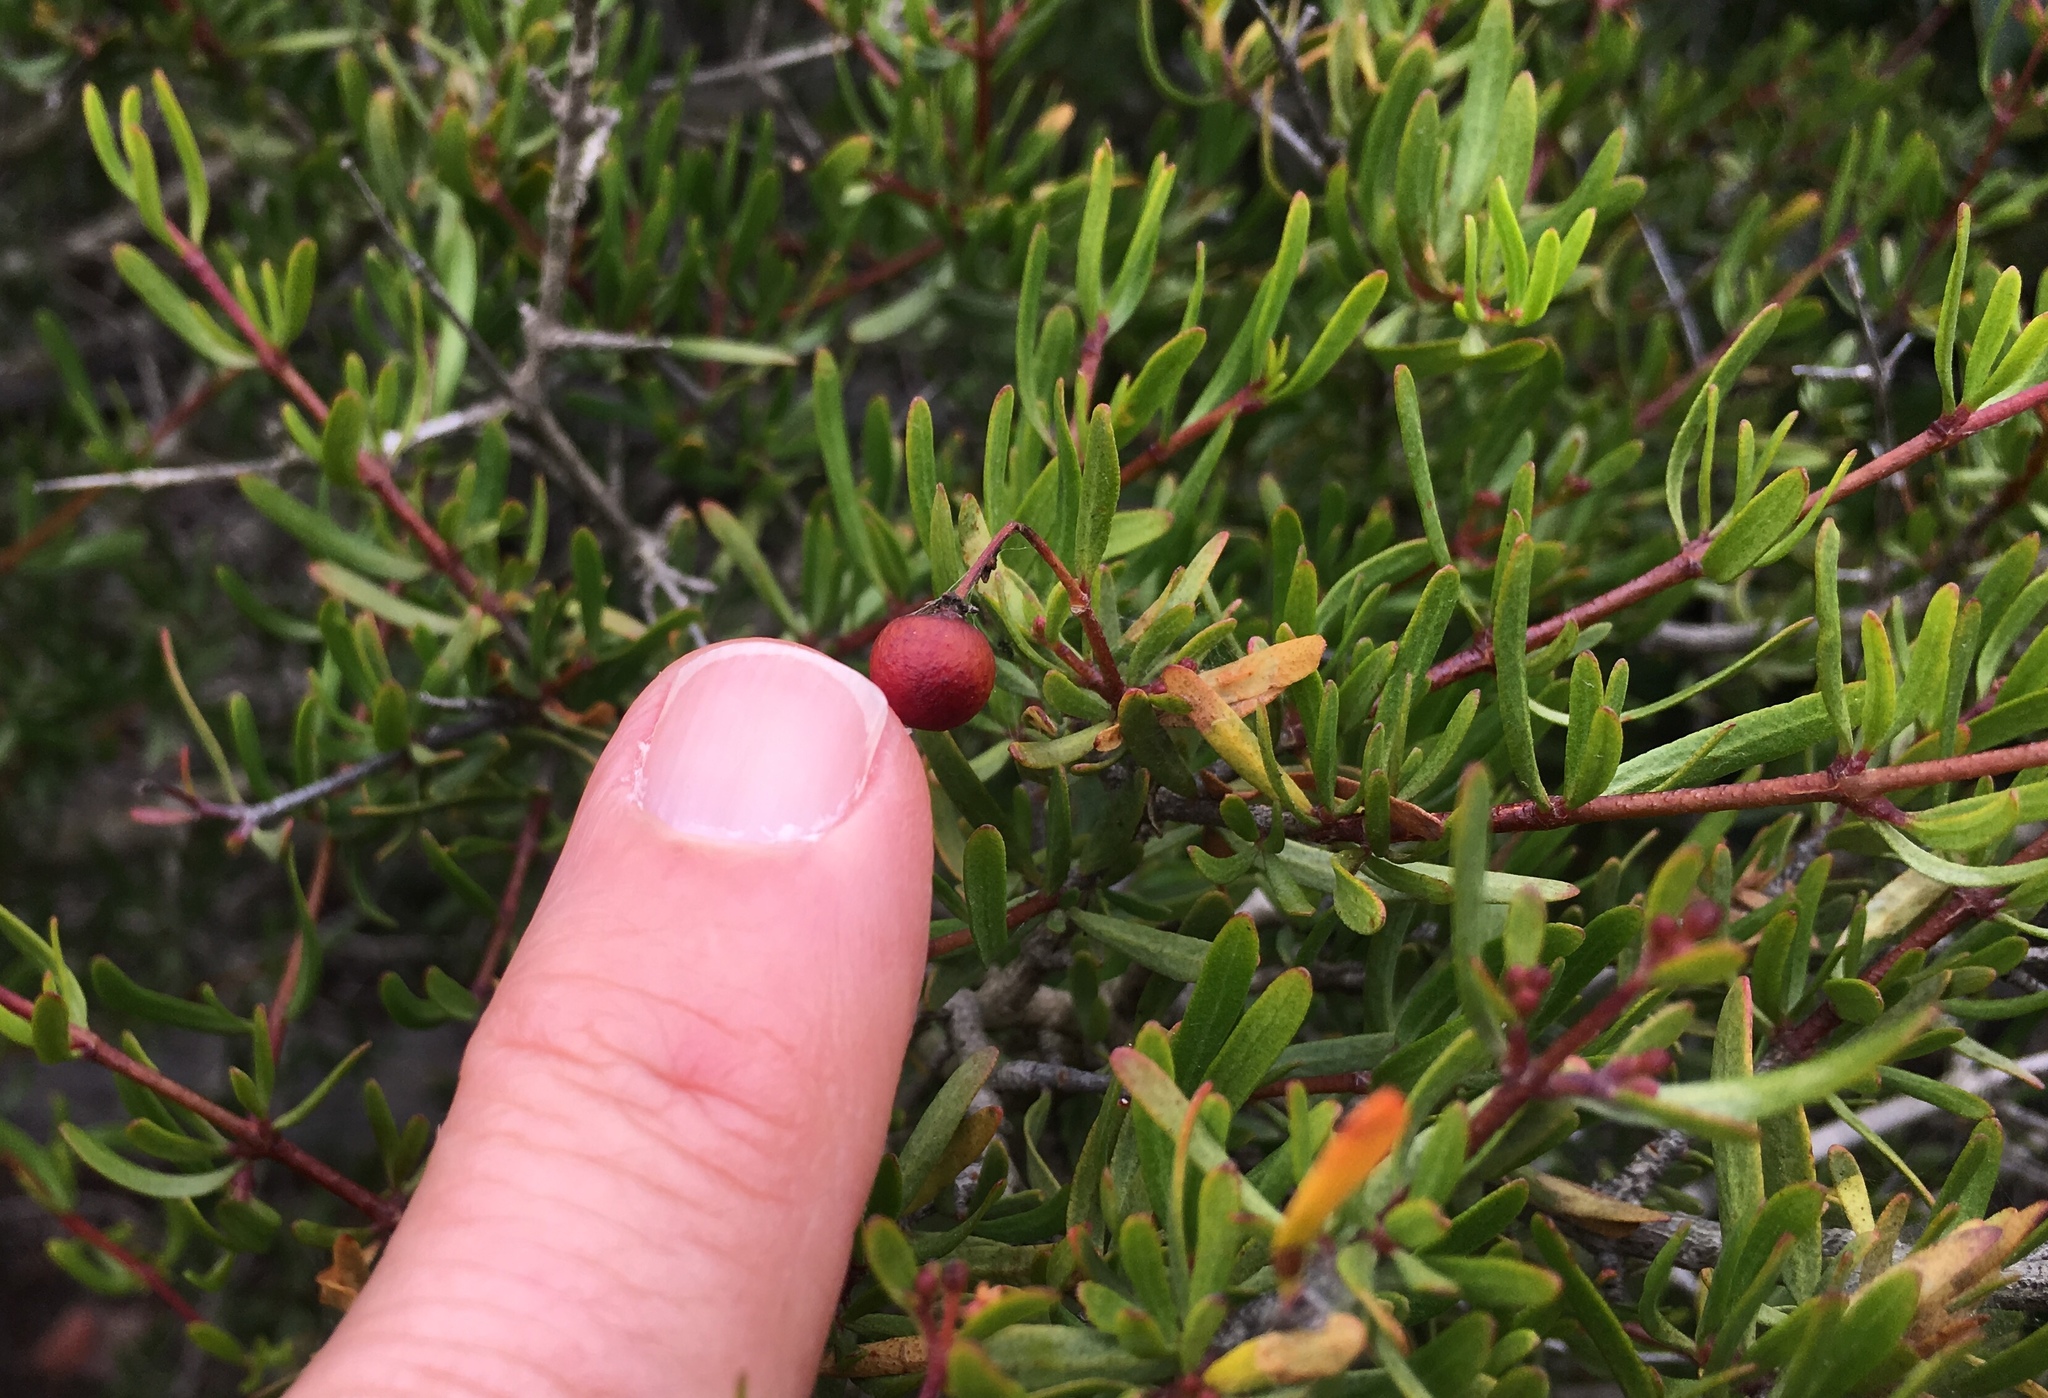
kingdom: Plantae
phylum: Tracheophyta
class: Magnoliopsida
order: Sapindales
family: Rutaceae
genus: Cneoridium
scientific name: Cneoridium dumosum
